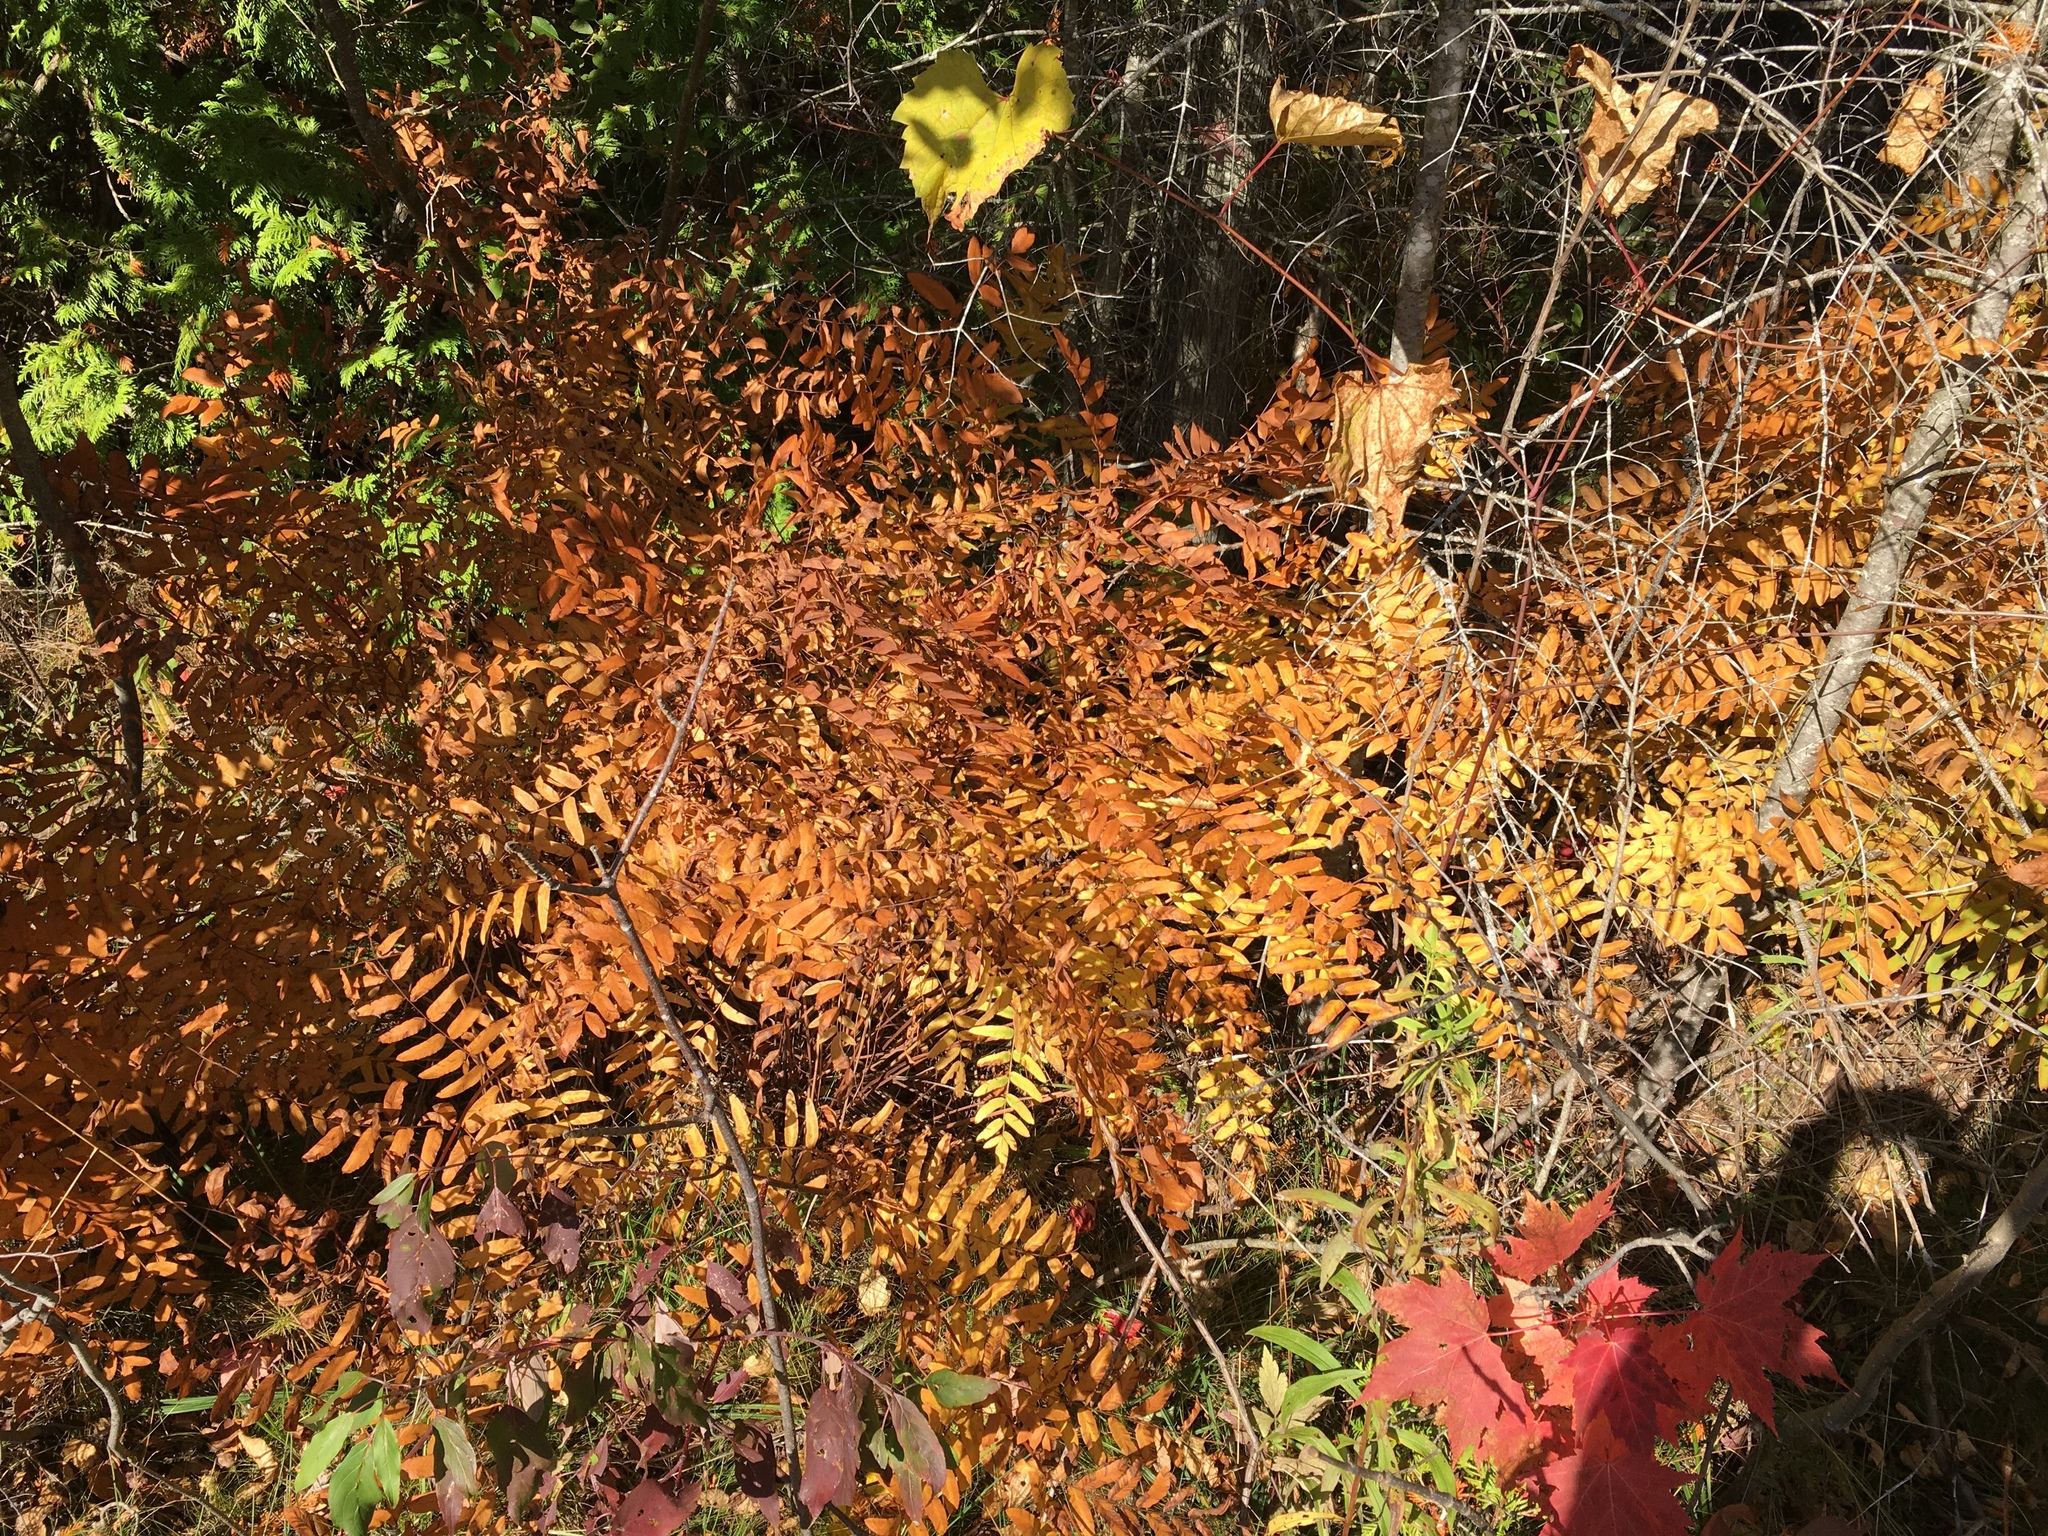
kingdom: Plantae
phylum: Tracheophyta
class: Polypodiopsida
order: Osmundales
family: Osmundaceae
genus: Osmunda
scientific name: Osmunda spectabilis
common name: American royal fern
